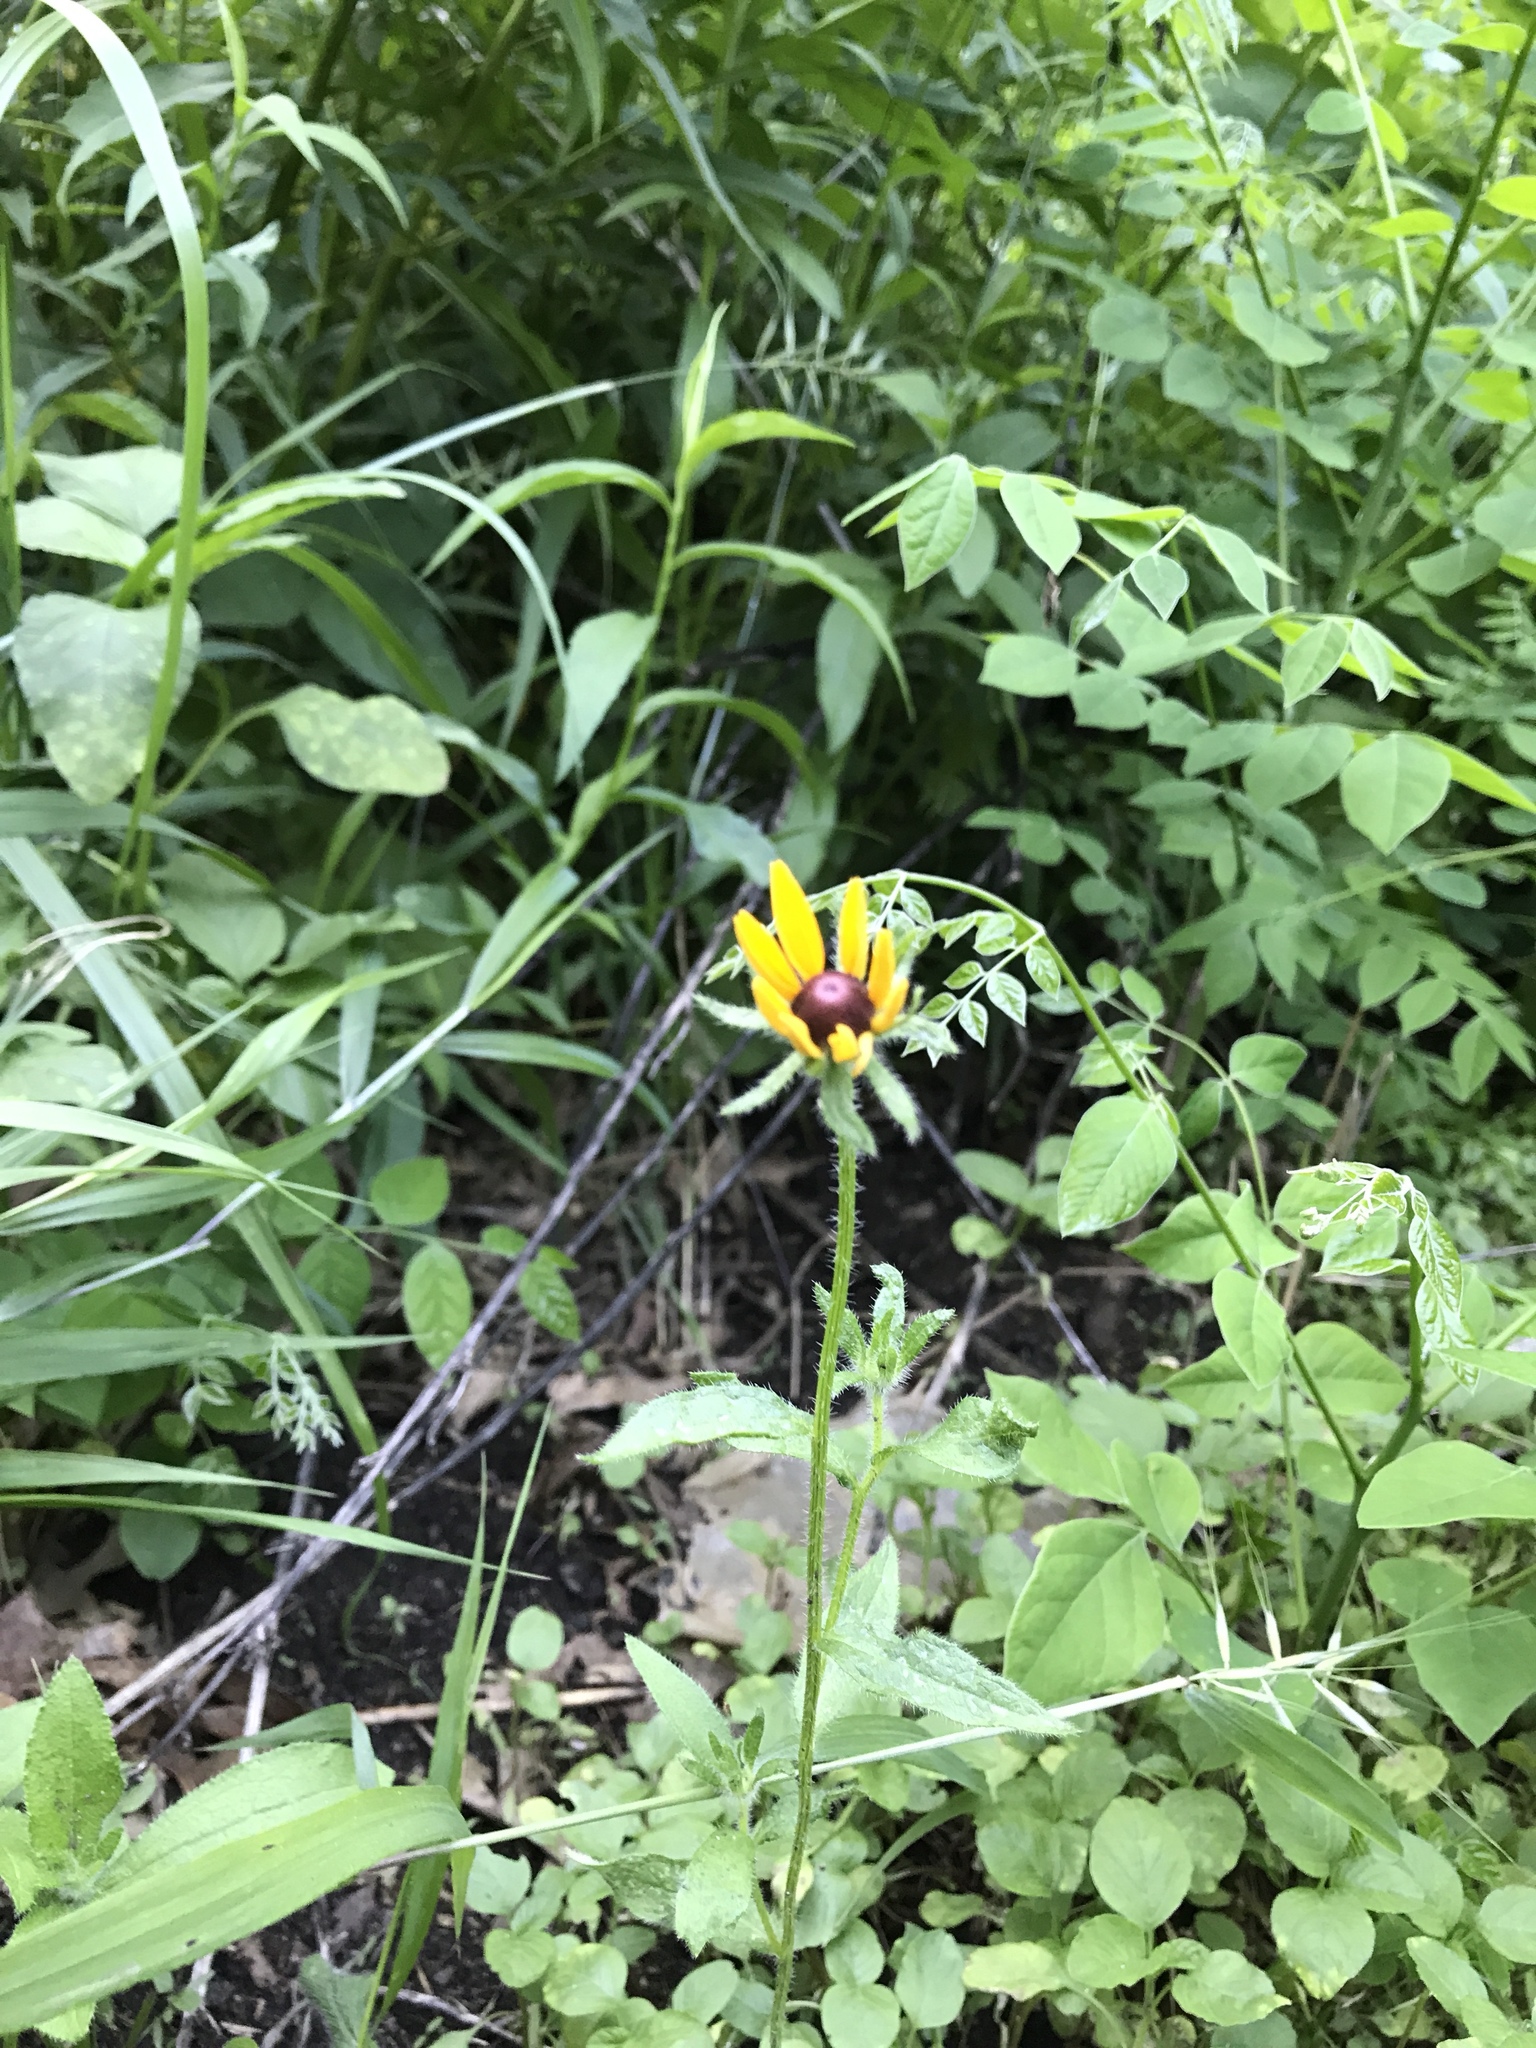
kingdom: Plantae
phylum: Tracheophyta
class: Magnoliopsida
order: Asterales
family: Asteraceae
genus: Rudbeckia
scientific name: Rudbeckia hirta
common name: Black-eyed-susan
